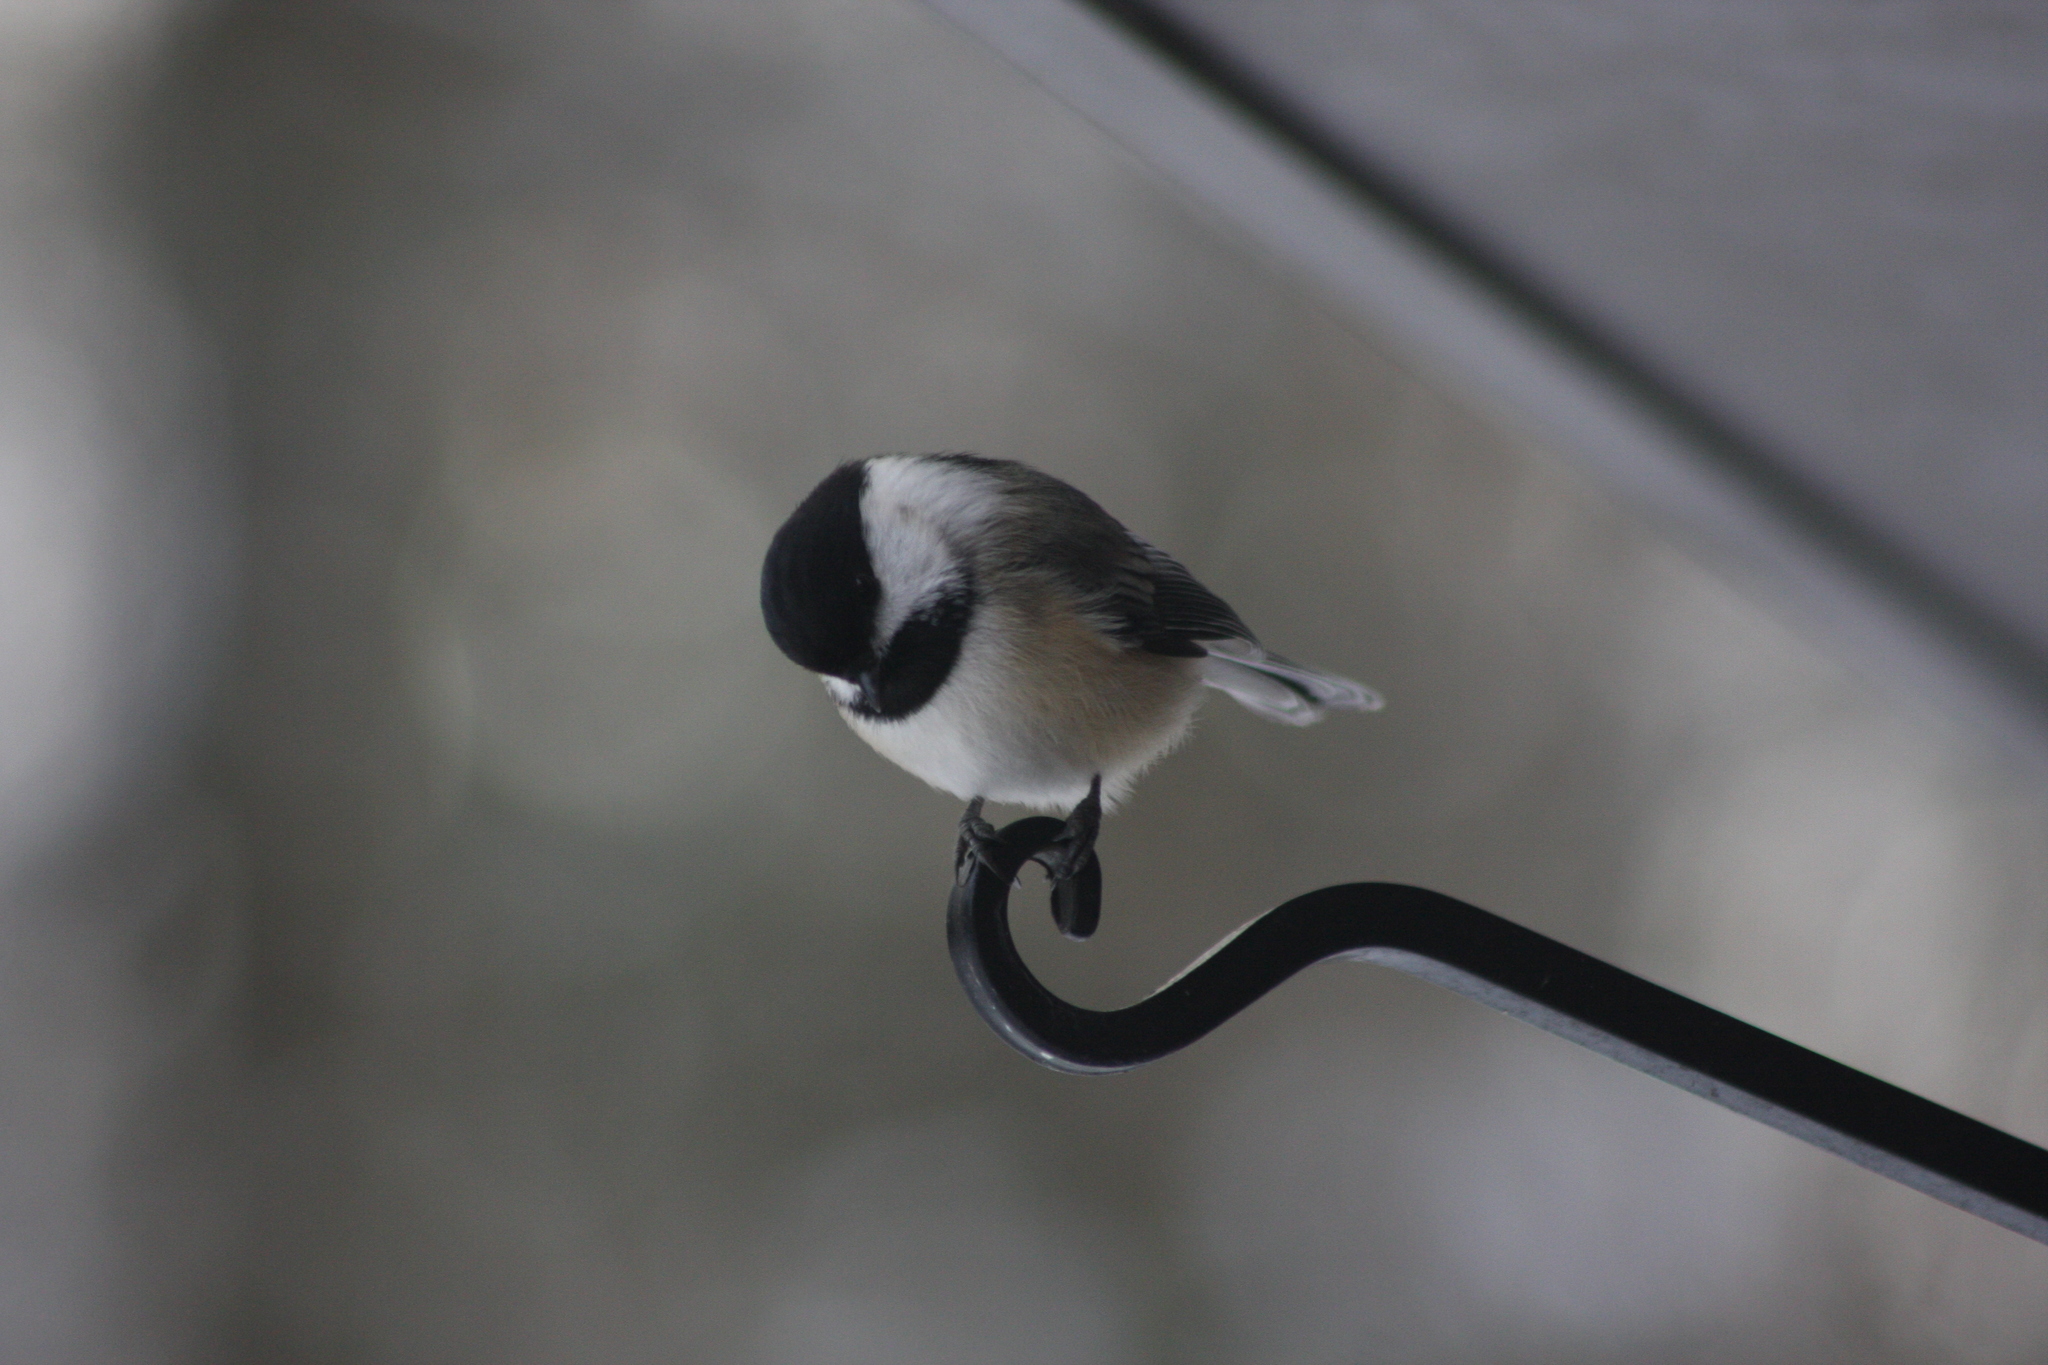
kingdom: Animalia
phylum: Chordata
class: Aves
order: Passeriformes
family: Paridae
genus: Poecile
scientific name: Poecile atricapillus
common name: Black-capped chickadee
